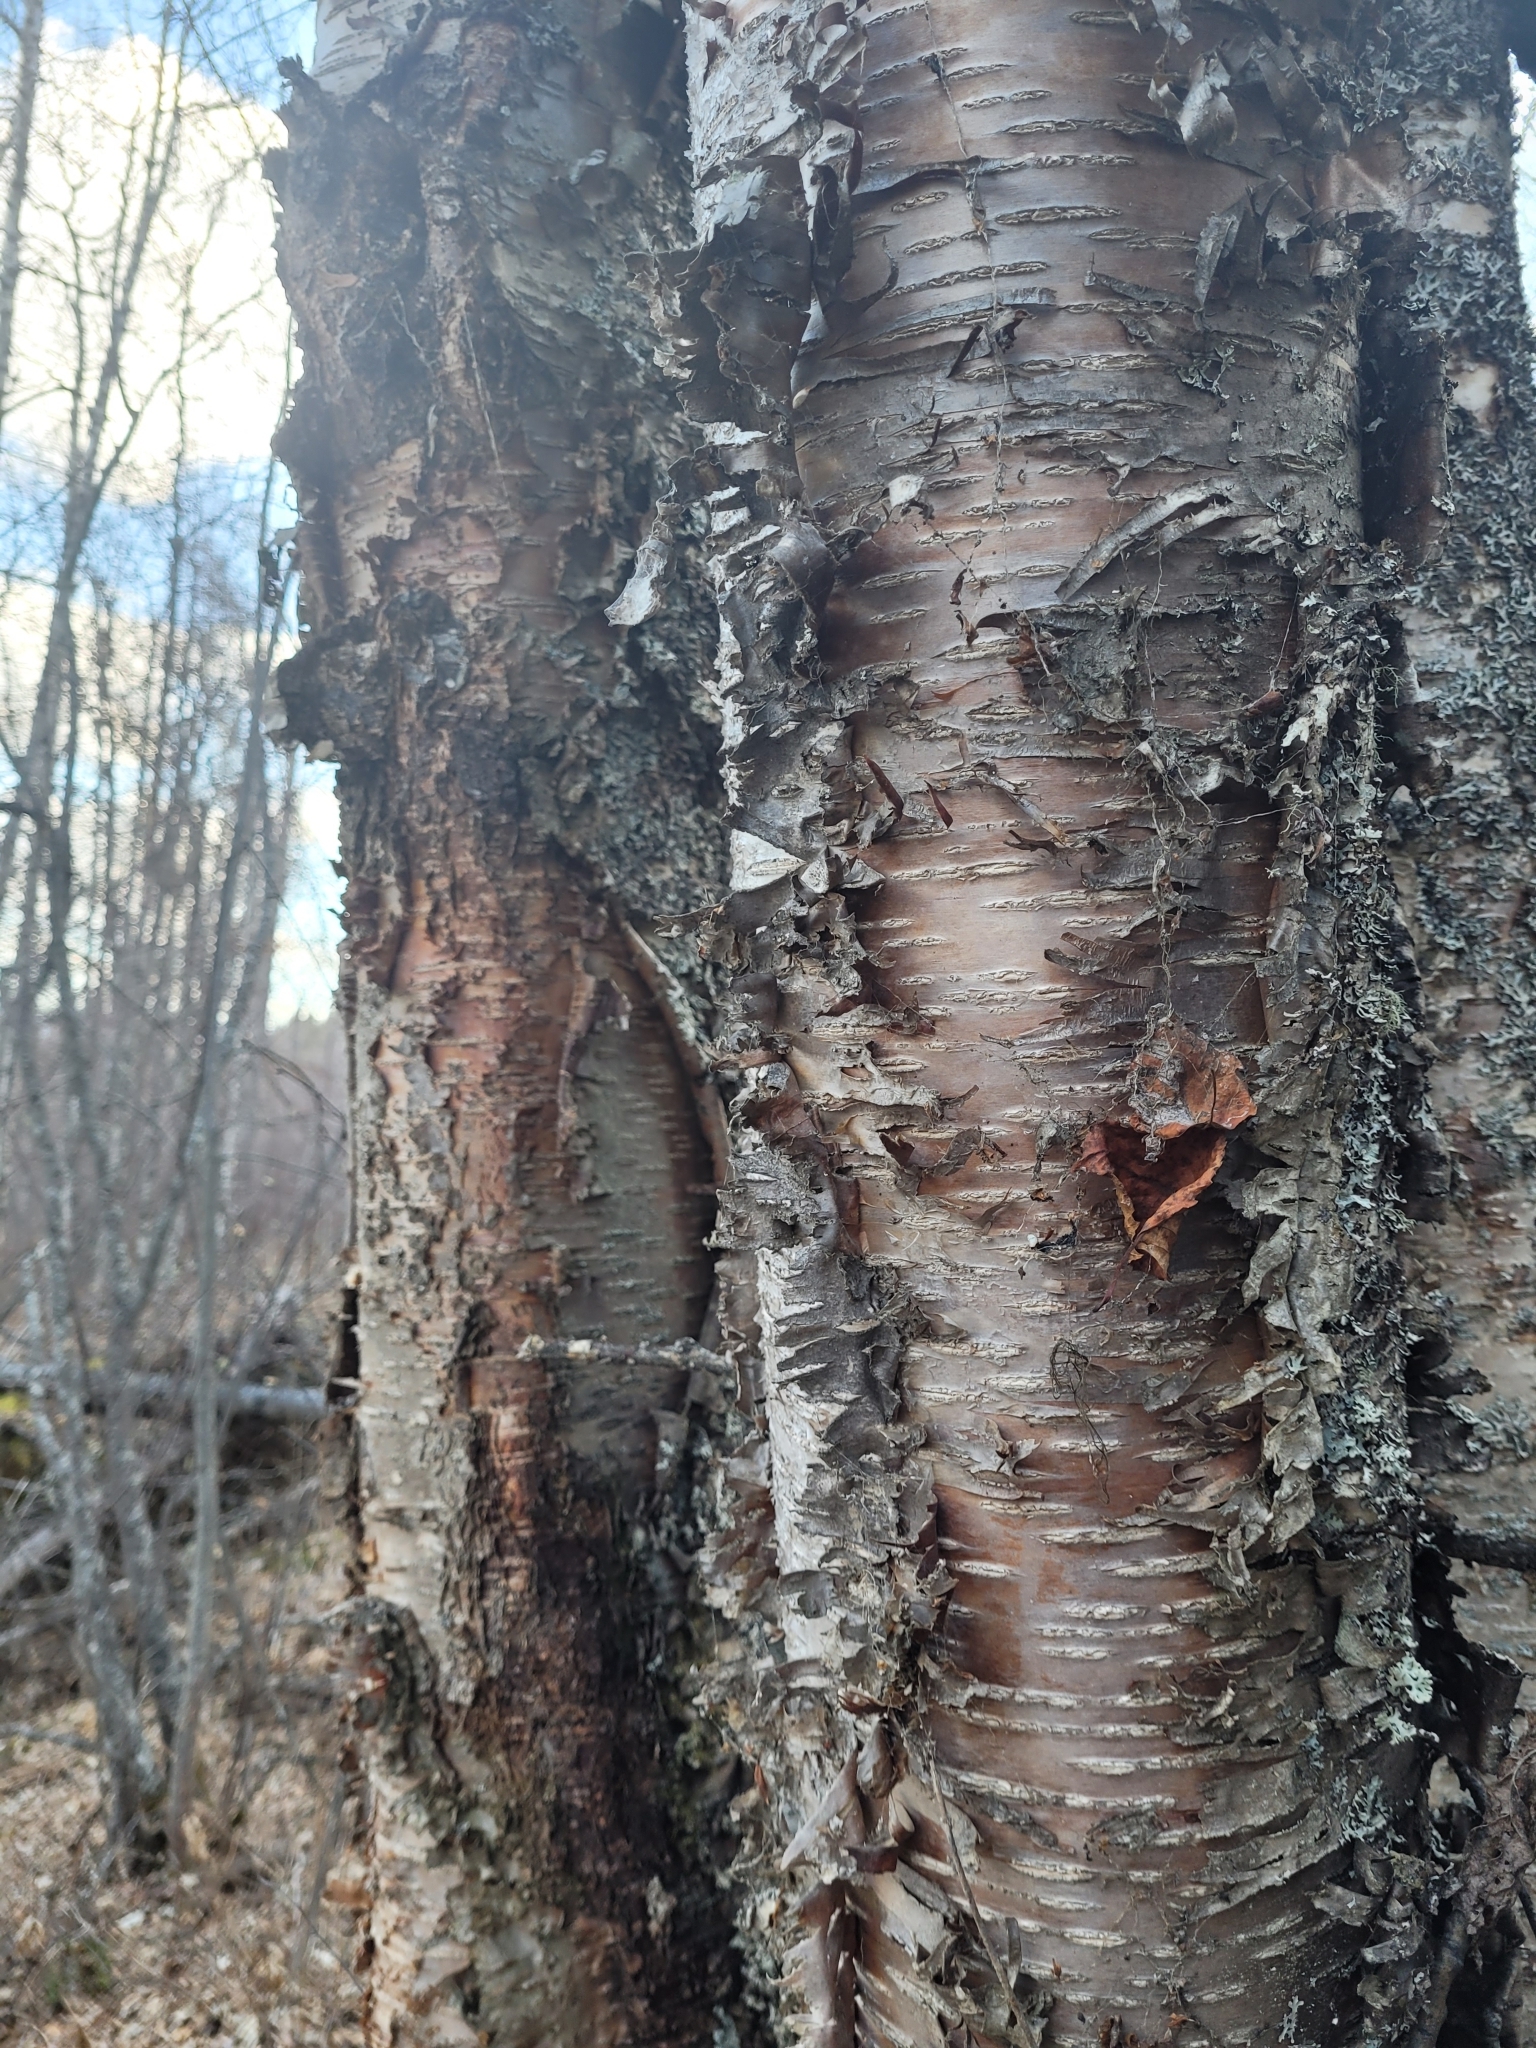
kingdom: Plantae
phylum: Tracheophyta
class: Magnoliopsida
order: Fagales
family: Betulaceae
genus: Betula
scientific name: Betula papyrifera
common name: Paper birch
